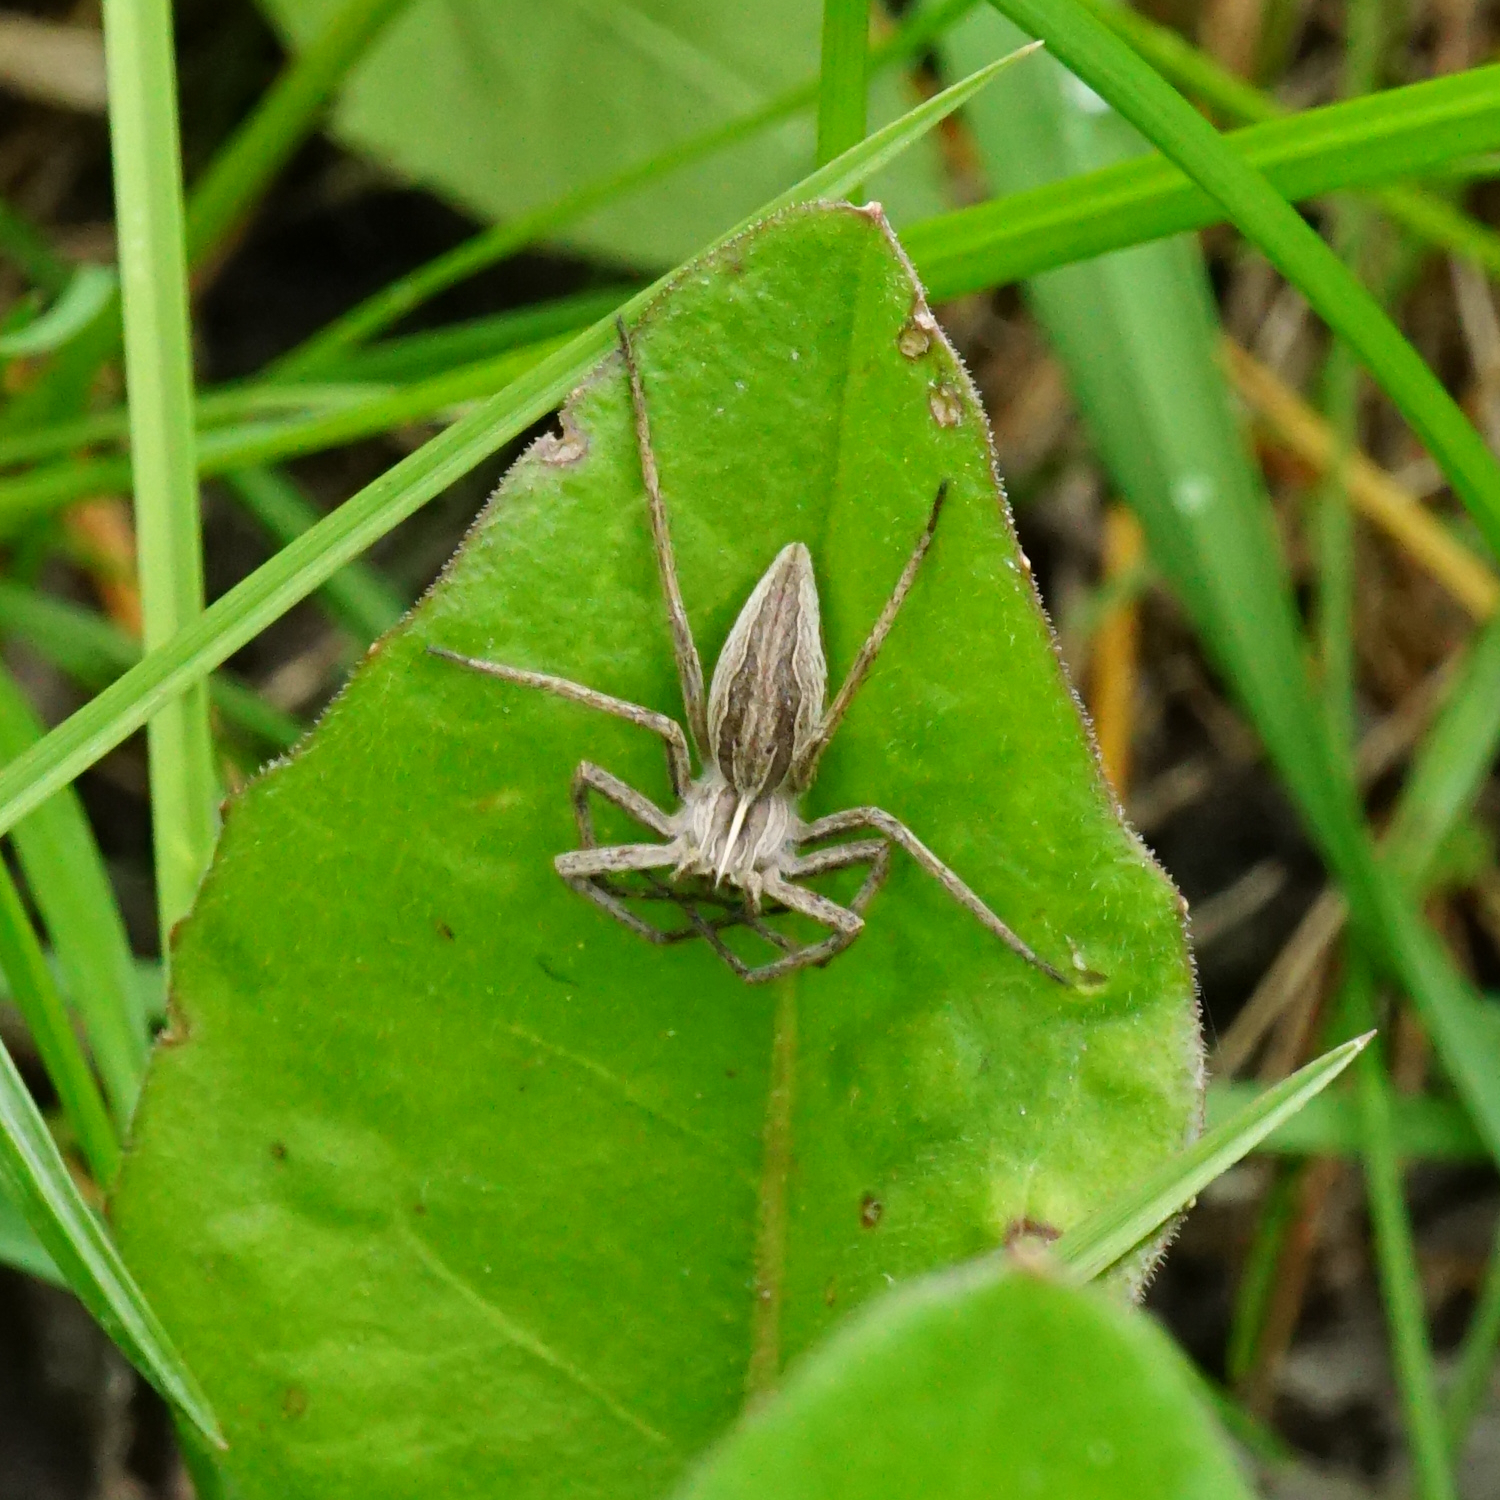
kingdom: Animalia
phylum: Arthropoda
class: Arachnida
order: Araneae
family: Pisauridae
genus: Pisaura
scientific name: Pisaura mirabilis
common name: Tent spider
